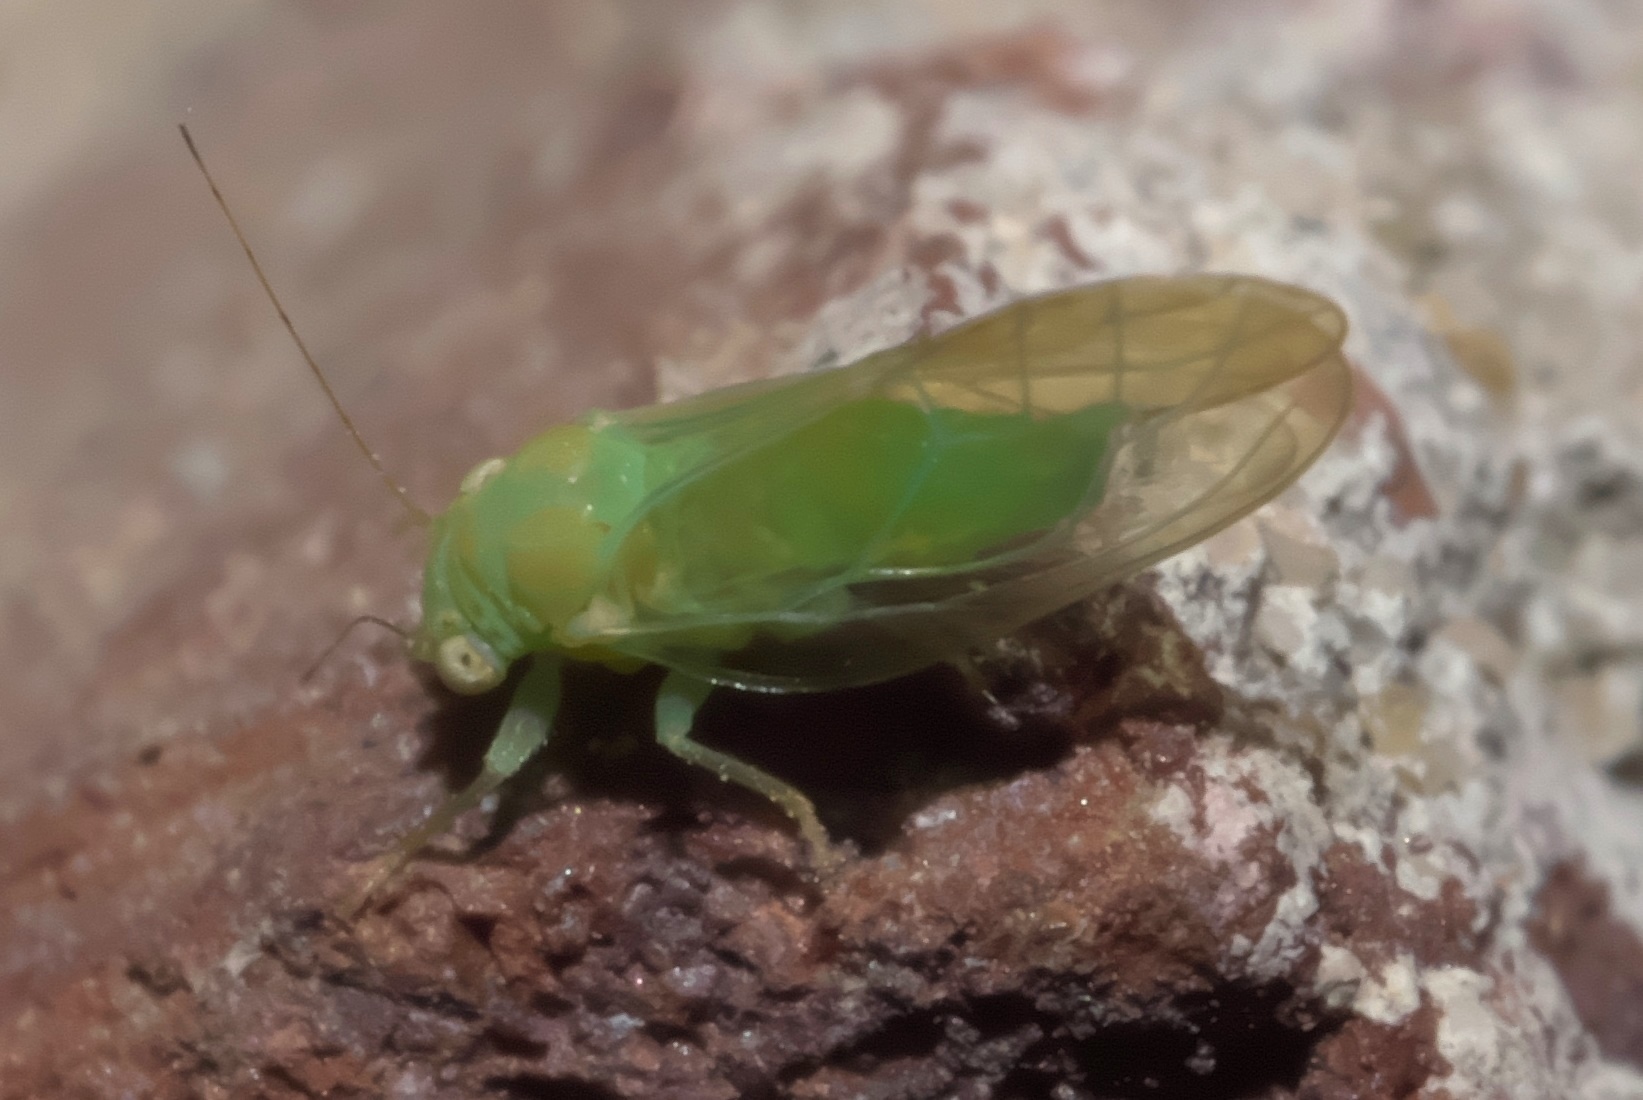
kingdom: Animalia
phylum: Arthropoda
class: Insecta
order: Hemiptera
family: Psyllidae
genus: Psylla
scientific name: Psylla carpinicola
